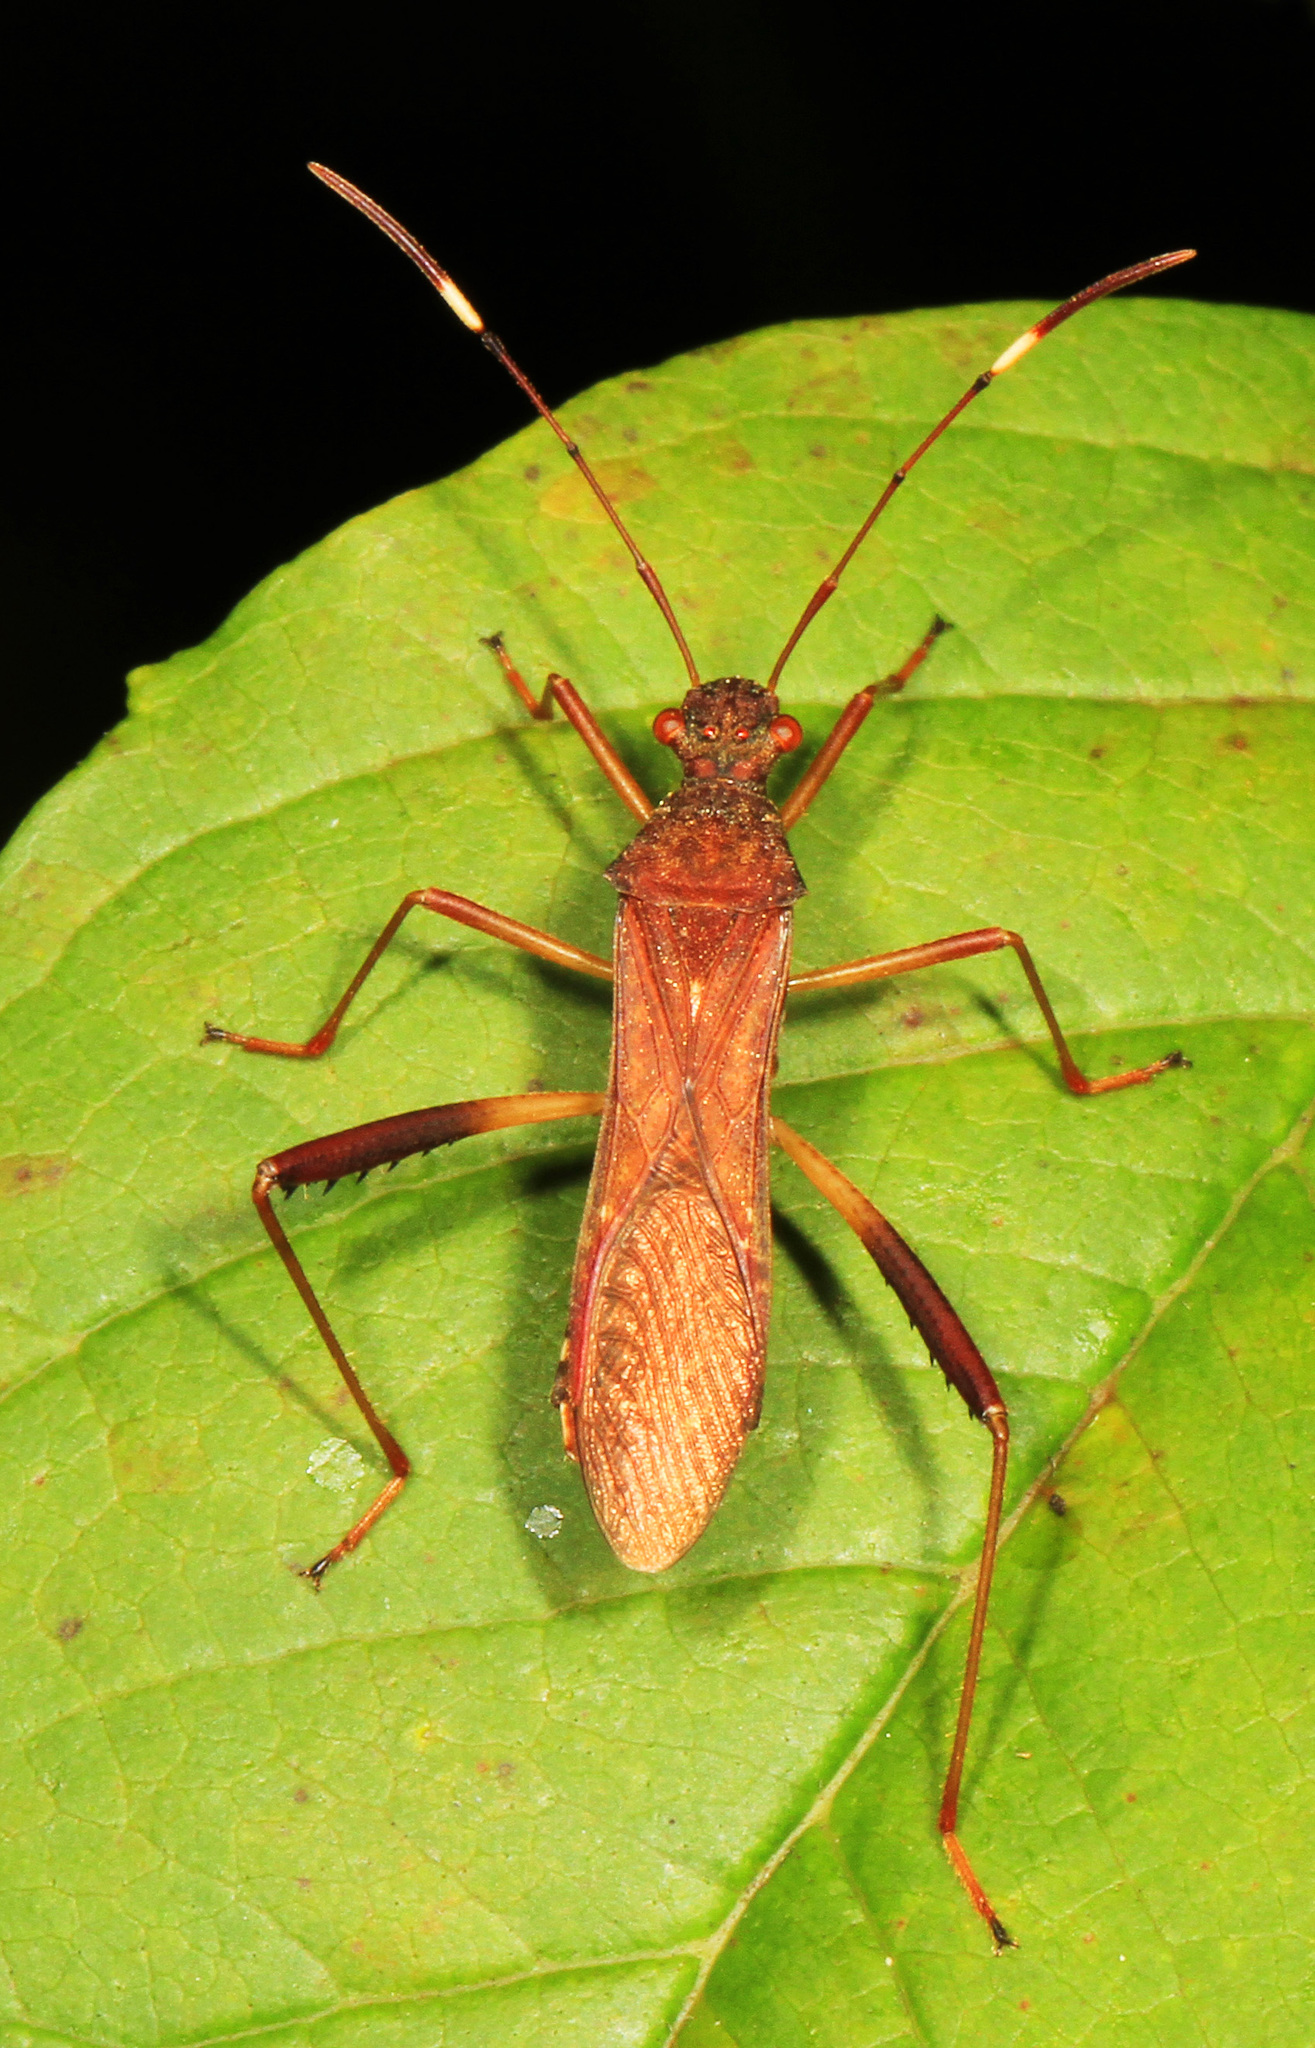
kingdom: Animalia
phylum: Arthropoda
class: Insecta
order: Hemiptera
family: Alydidae
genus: Megalotomus
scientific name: Megalotomus quinquespinosus
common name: Lupine bug
